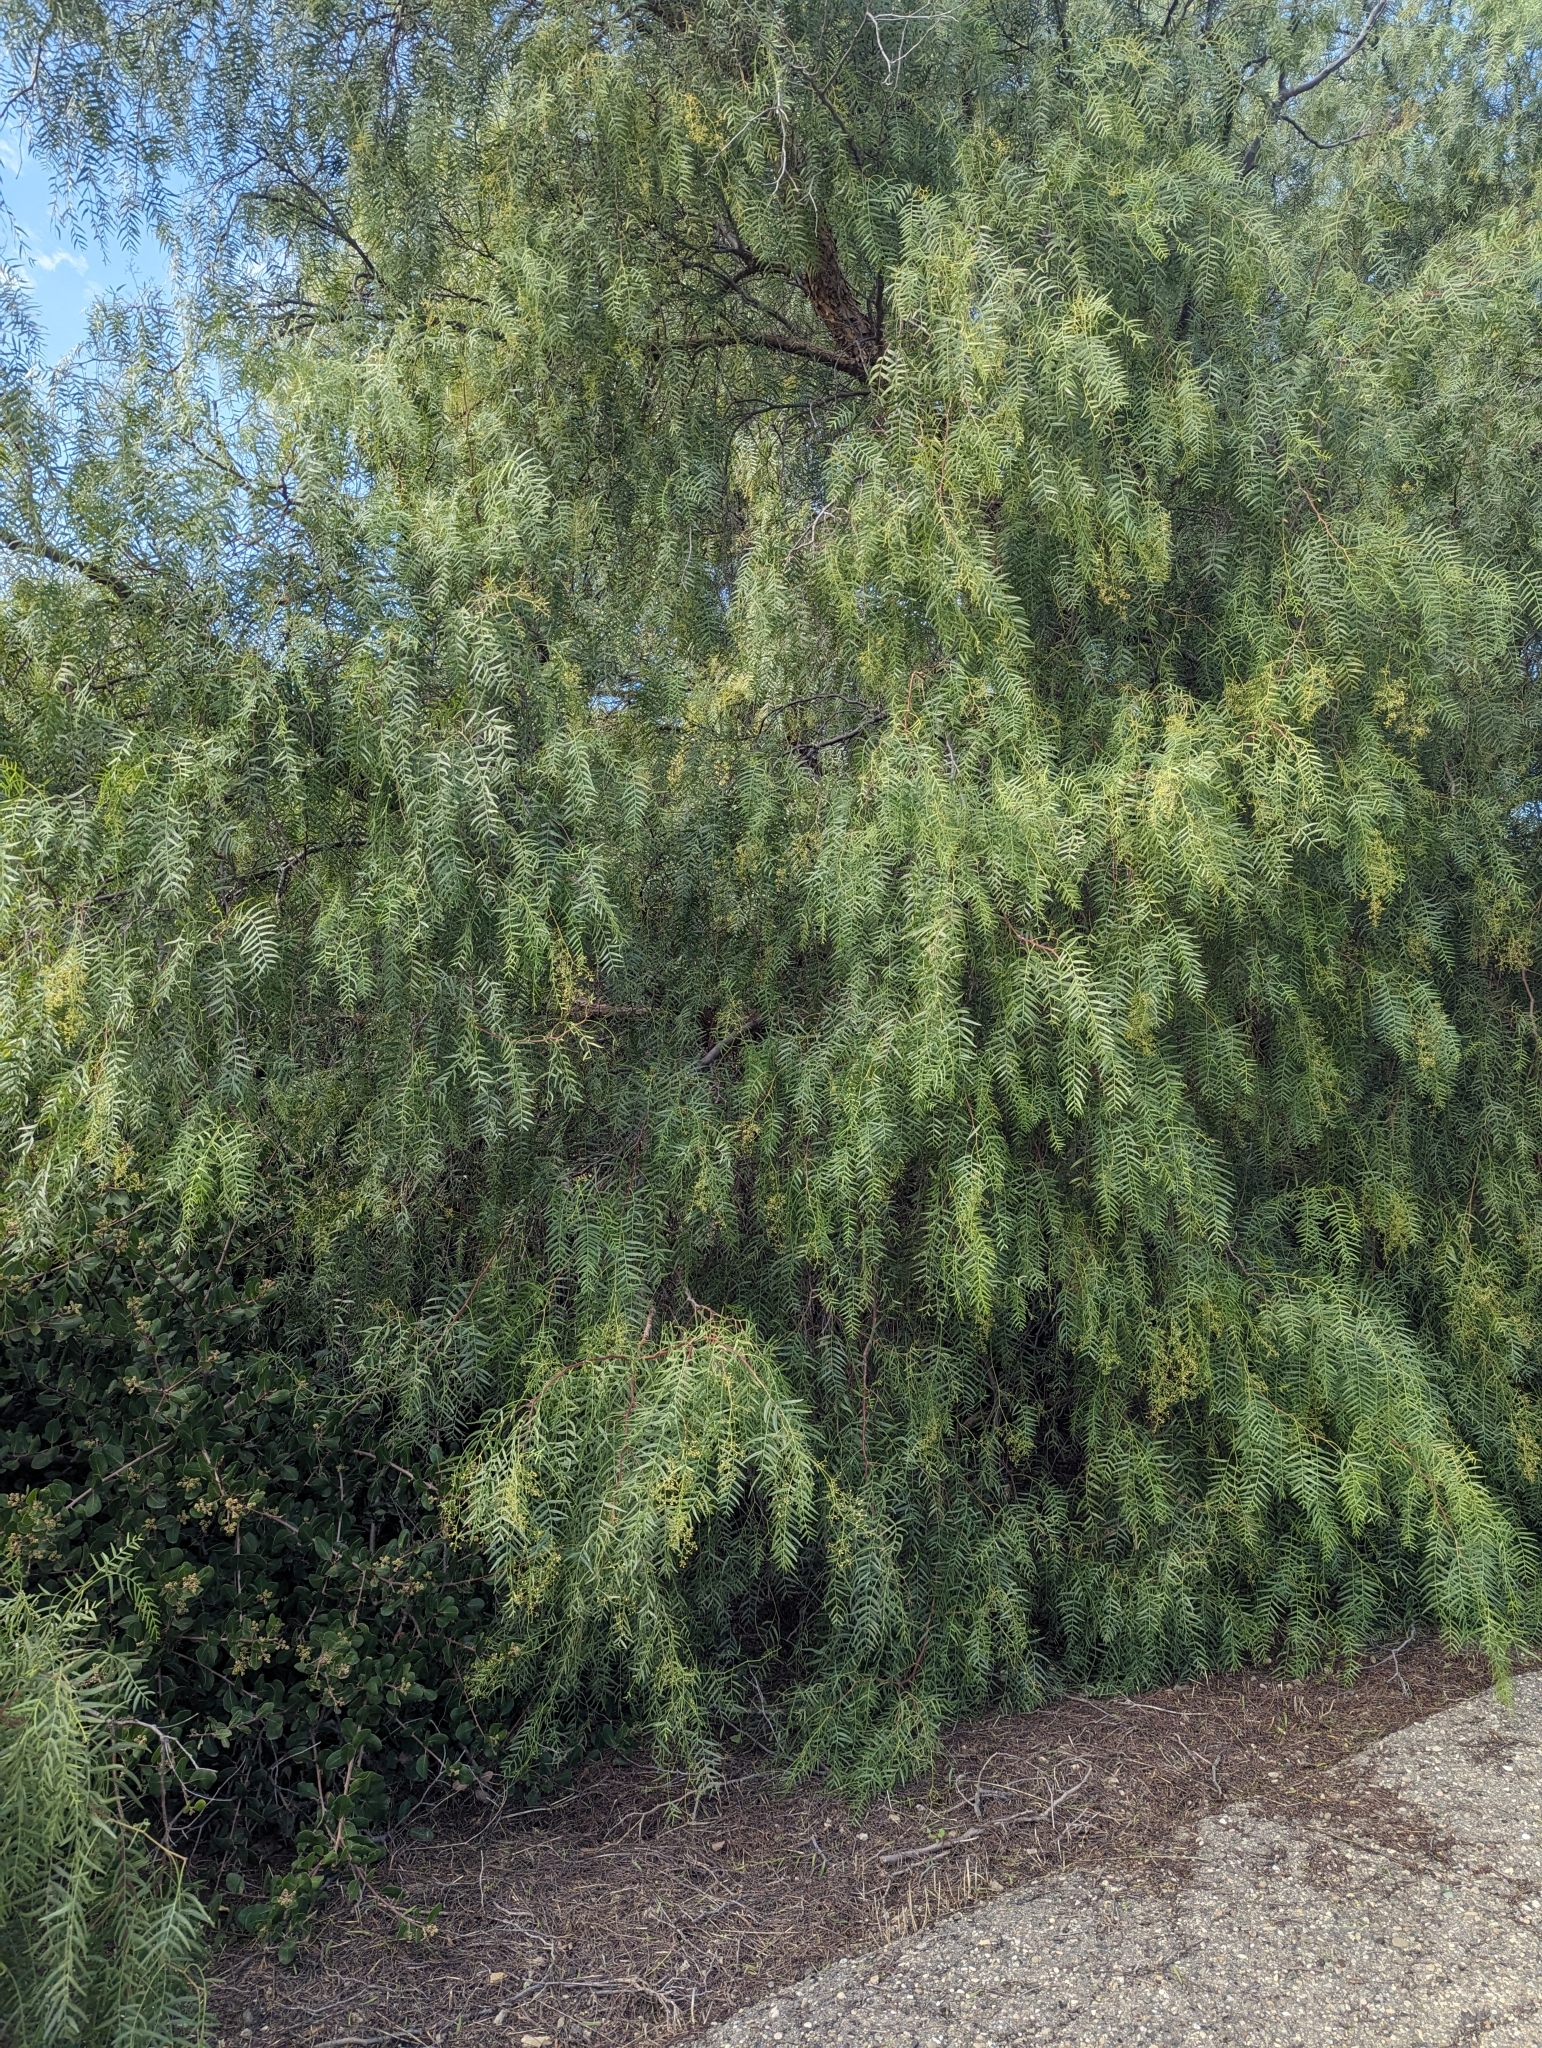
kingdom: Plantae
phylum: Tracheophyta
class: Magnoliopsida
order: Sapindales
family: Anacardiaceae
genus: Schinus
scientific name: Schinus molle
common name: Peruvian peppertree
